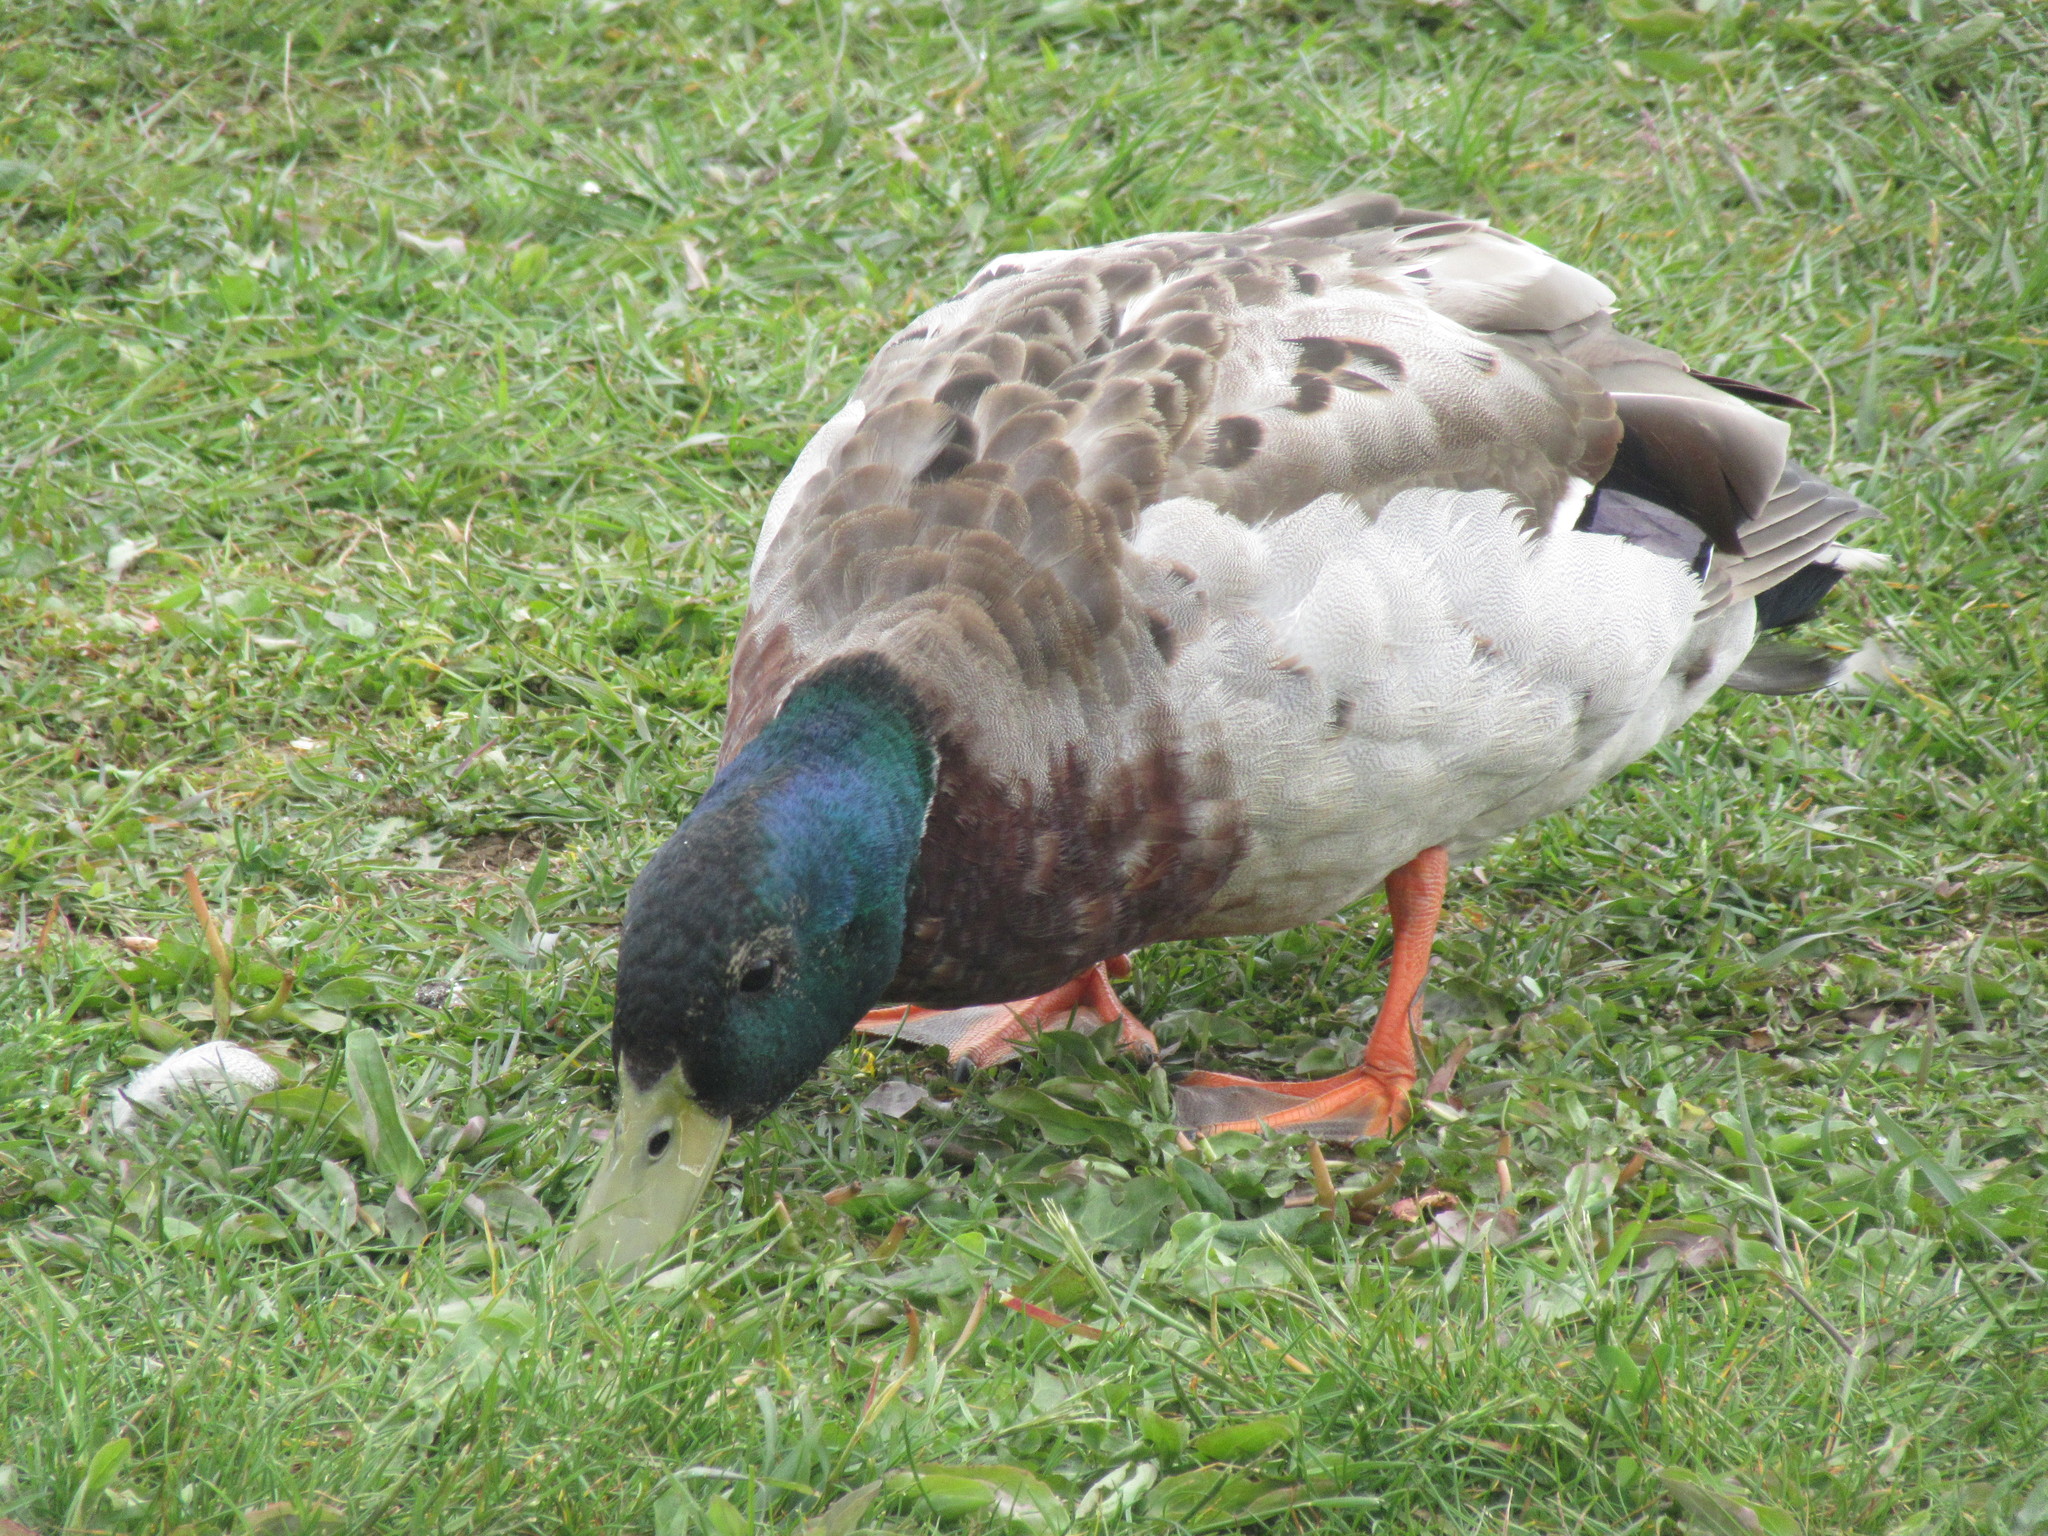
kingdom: Animalia
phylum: Chordata
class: Aves
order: Anseriformes
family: Anatidae
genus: Anas
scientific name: Anas platyrhynchos
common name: Mallard
